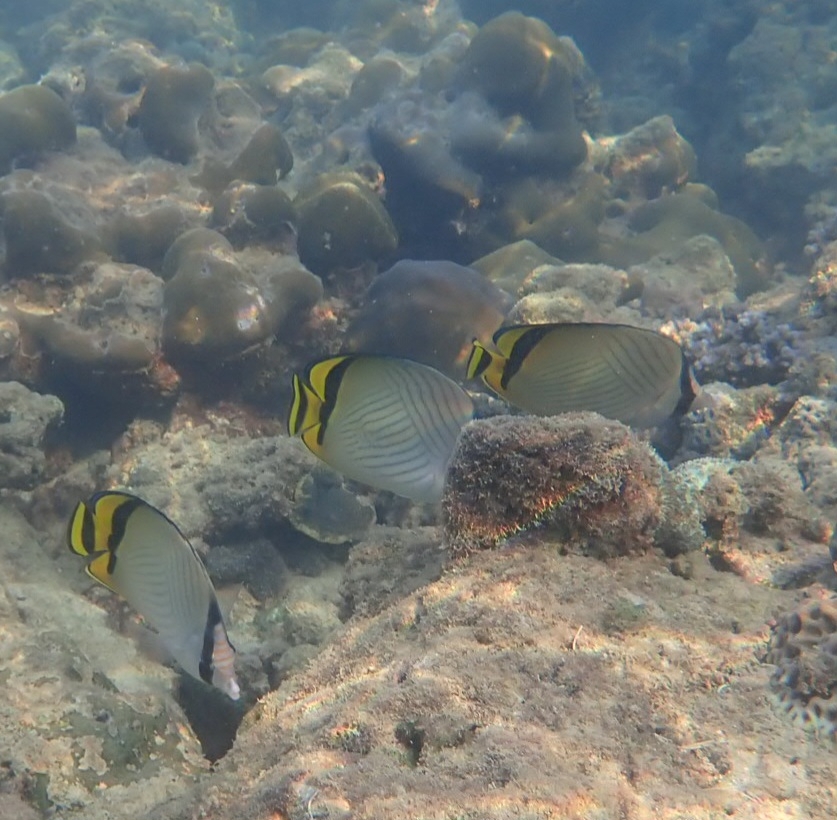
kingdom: Animalia
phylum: Chordata
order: Perciformes
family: Chaetodontidae
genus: Chaetodon
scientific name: Chaetodon vagabundus
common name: Vagabond butterflyfish
